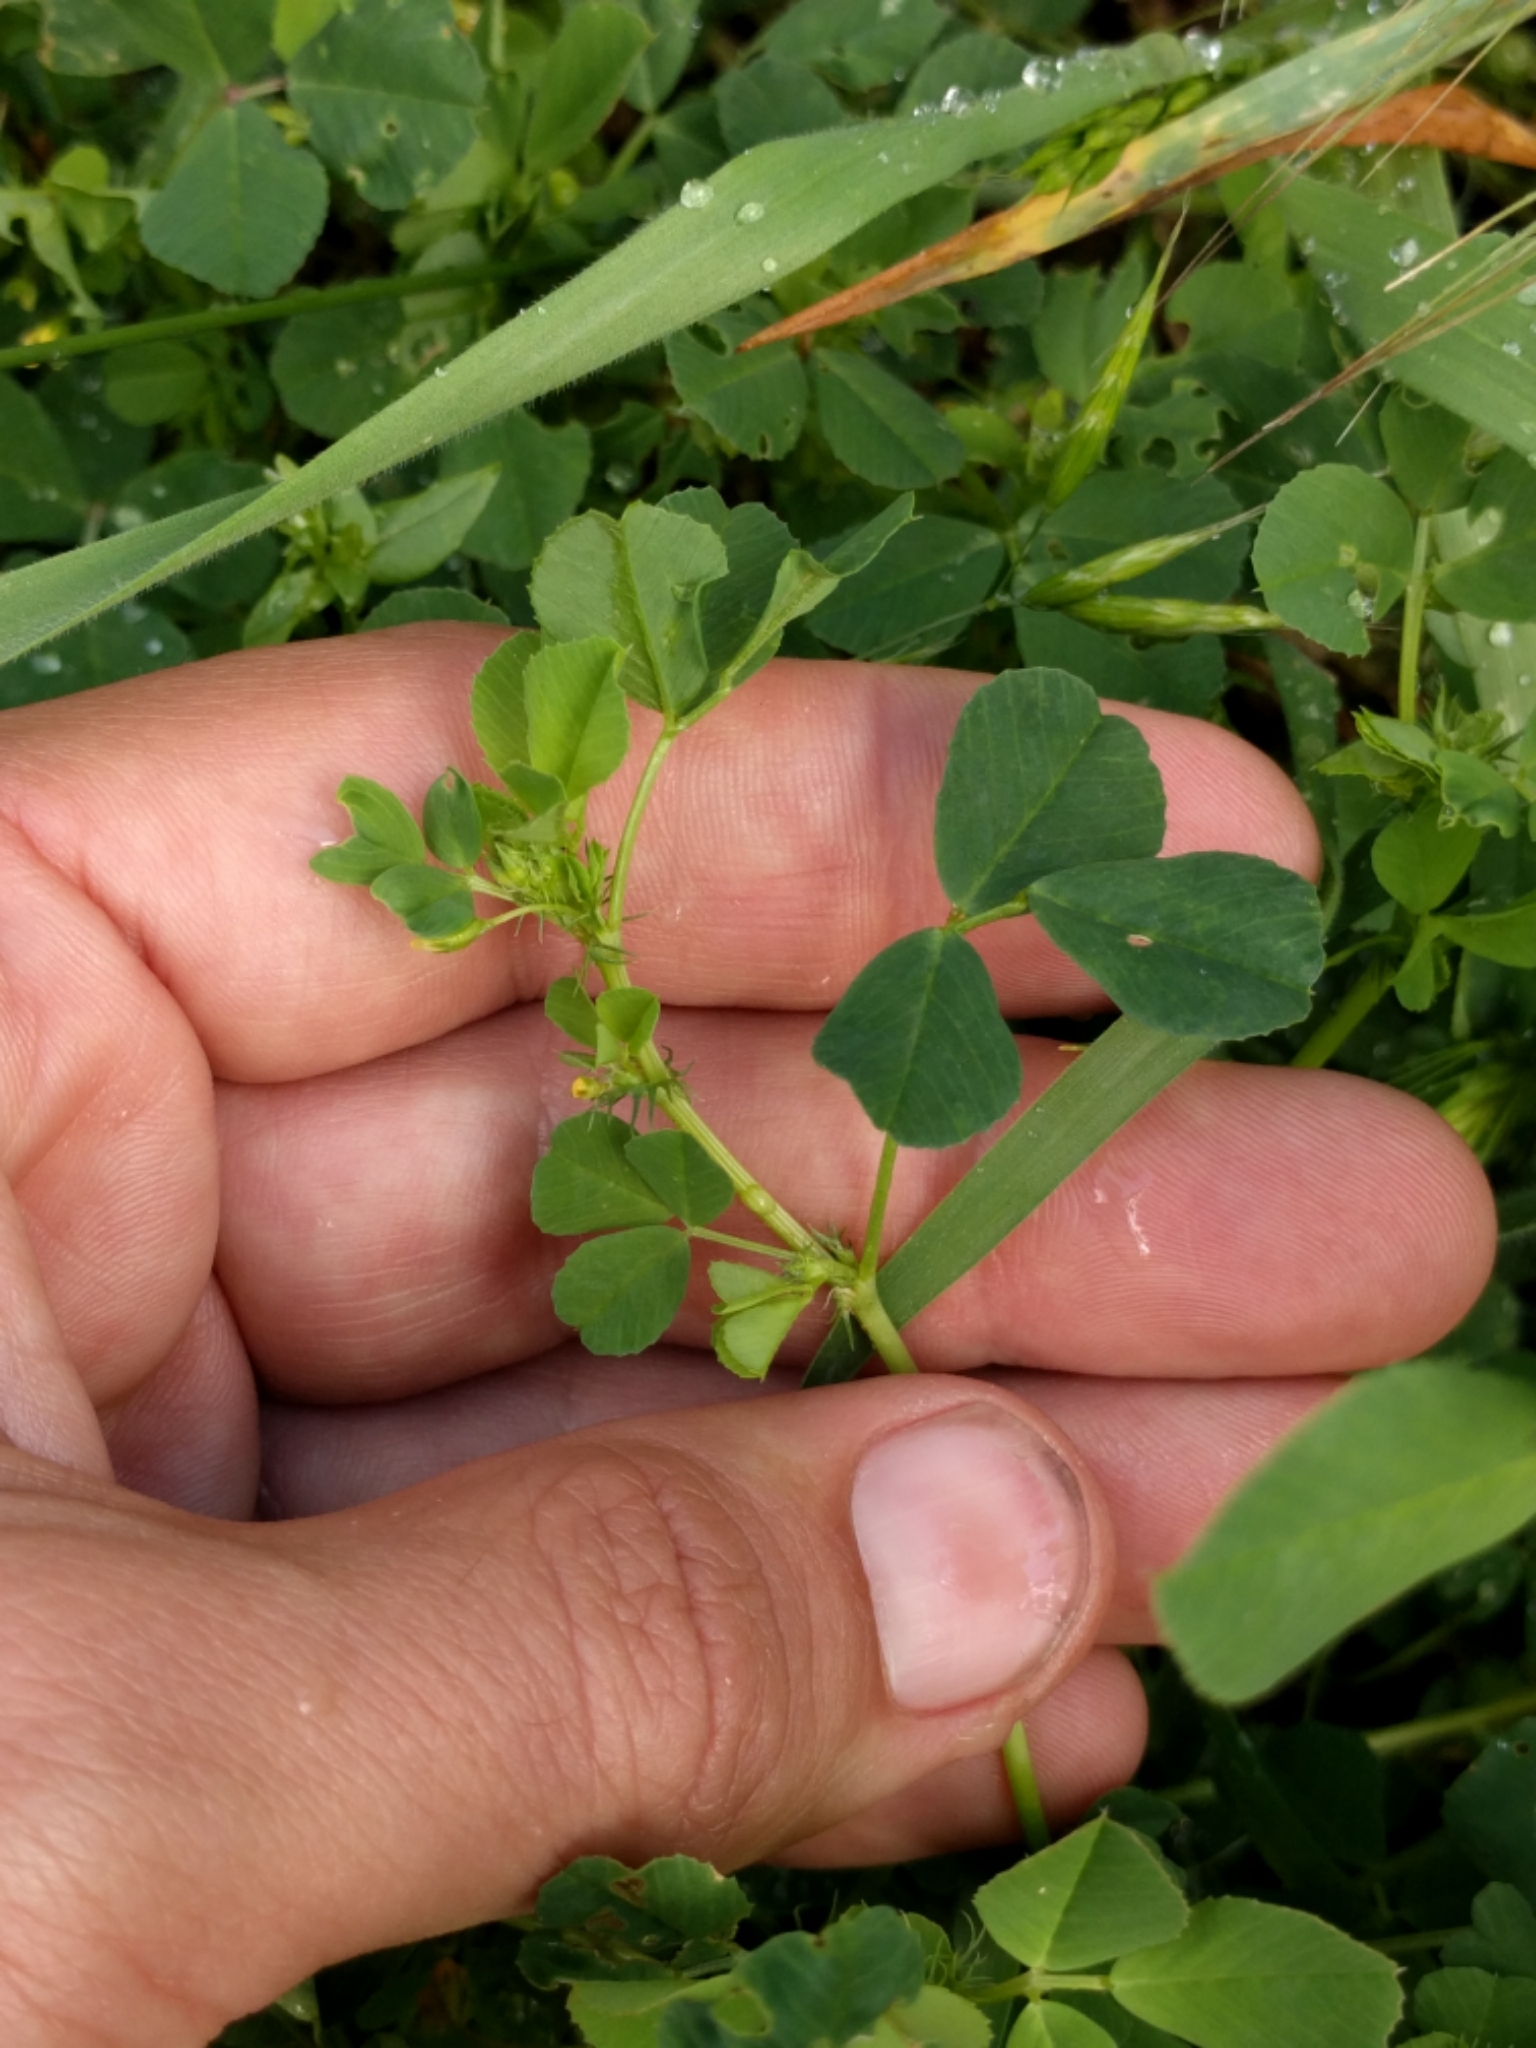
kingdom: Plantae
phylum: Tracheophyta
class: Magnoliopsida
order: Fabales
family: Fabaceae
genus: Medicago
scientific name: Medicago polymorpha
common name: Burclover
